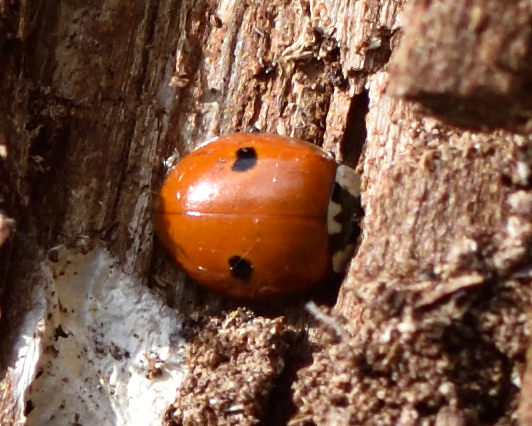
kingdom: Animalia
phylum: Arthropoda
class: Insecta
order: Coleoptera
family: Coccinellidae
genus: Adalia
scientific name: Adalia bipunctata
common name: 2-spot ladybird
